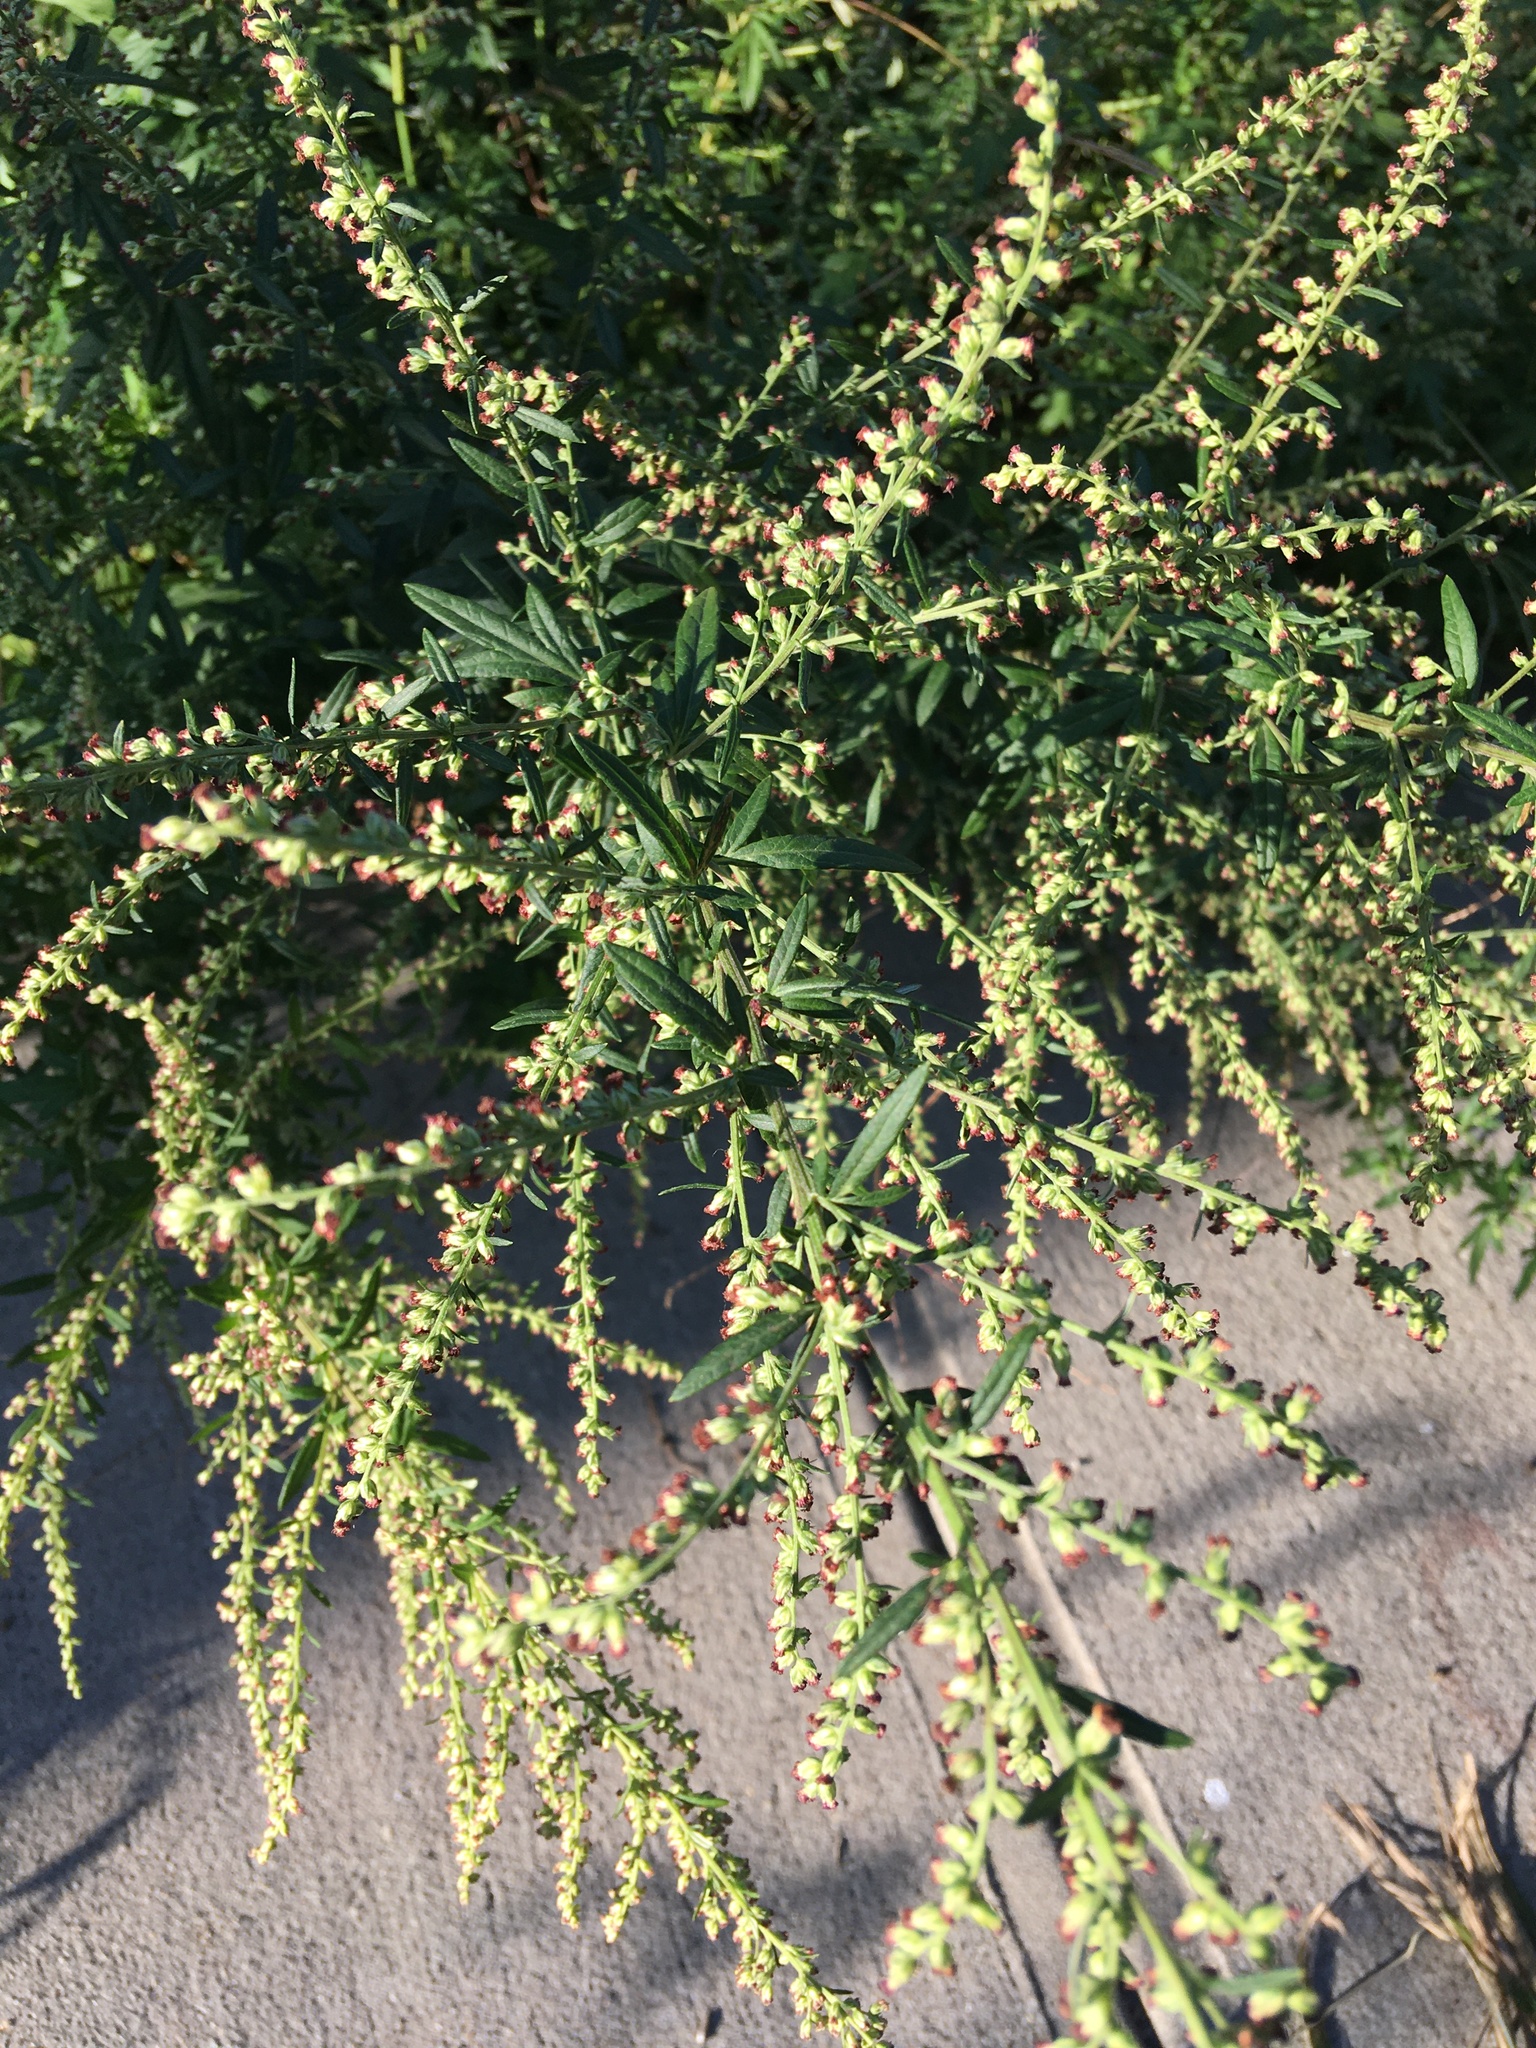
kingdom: Plantae
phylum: Tracheophyta
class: Magnoliopsida
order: Asterales
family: Asteraceae
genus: Artemisia
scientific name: Artemisia vulgaris
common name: Mugwort
